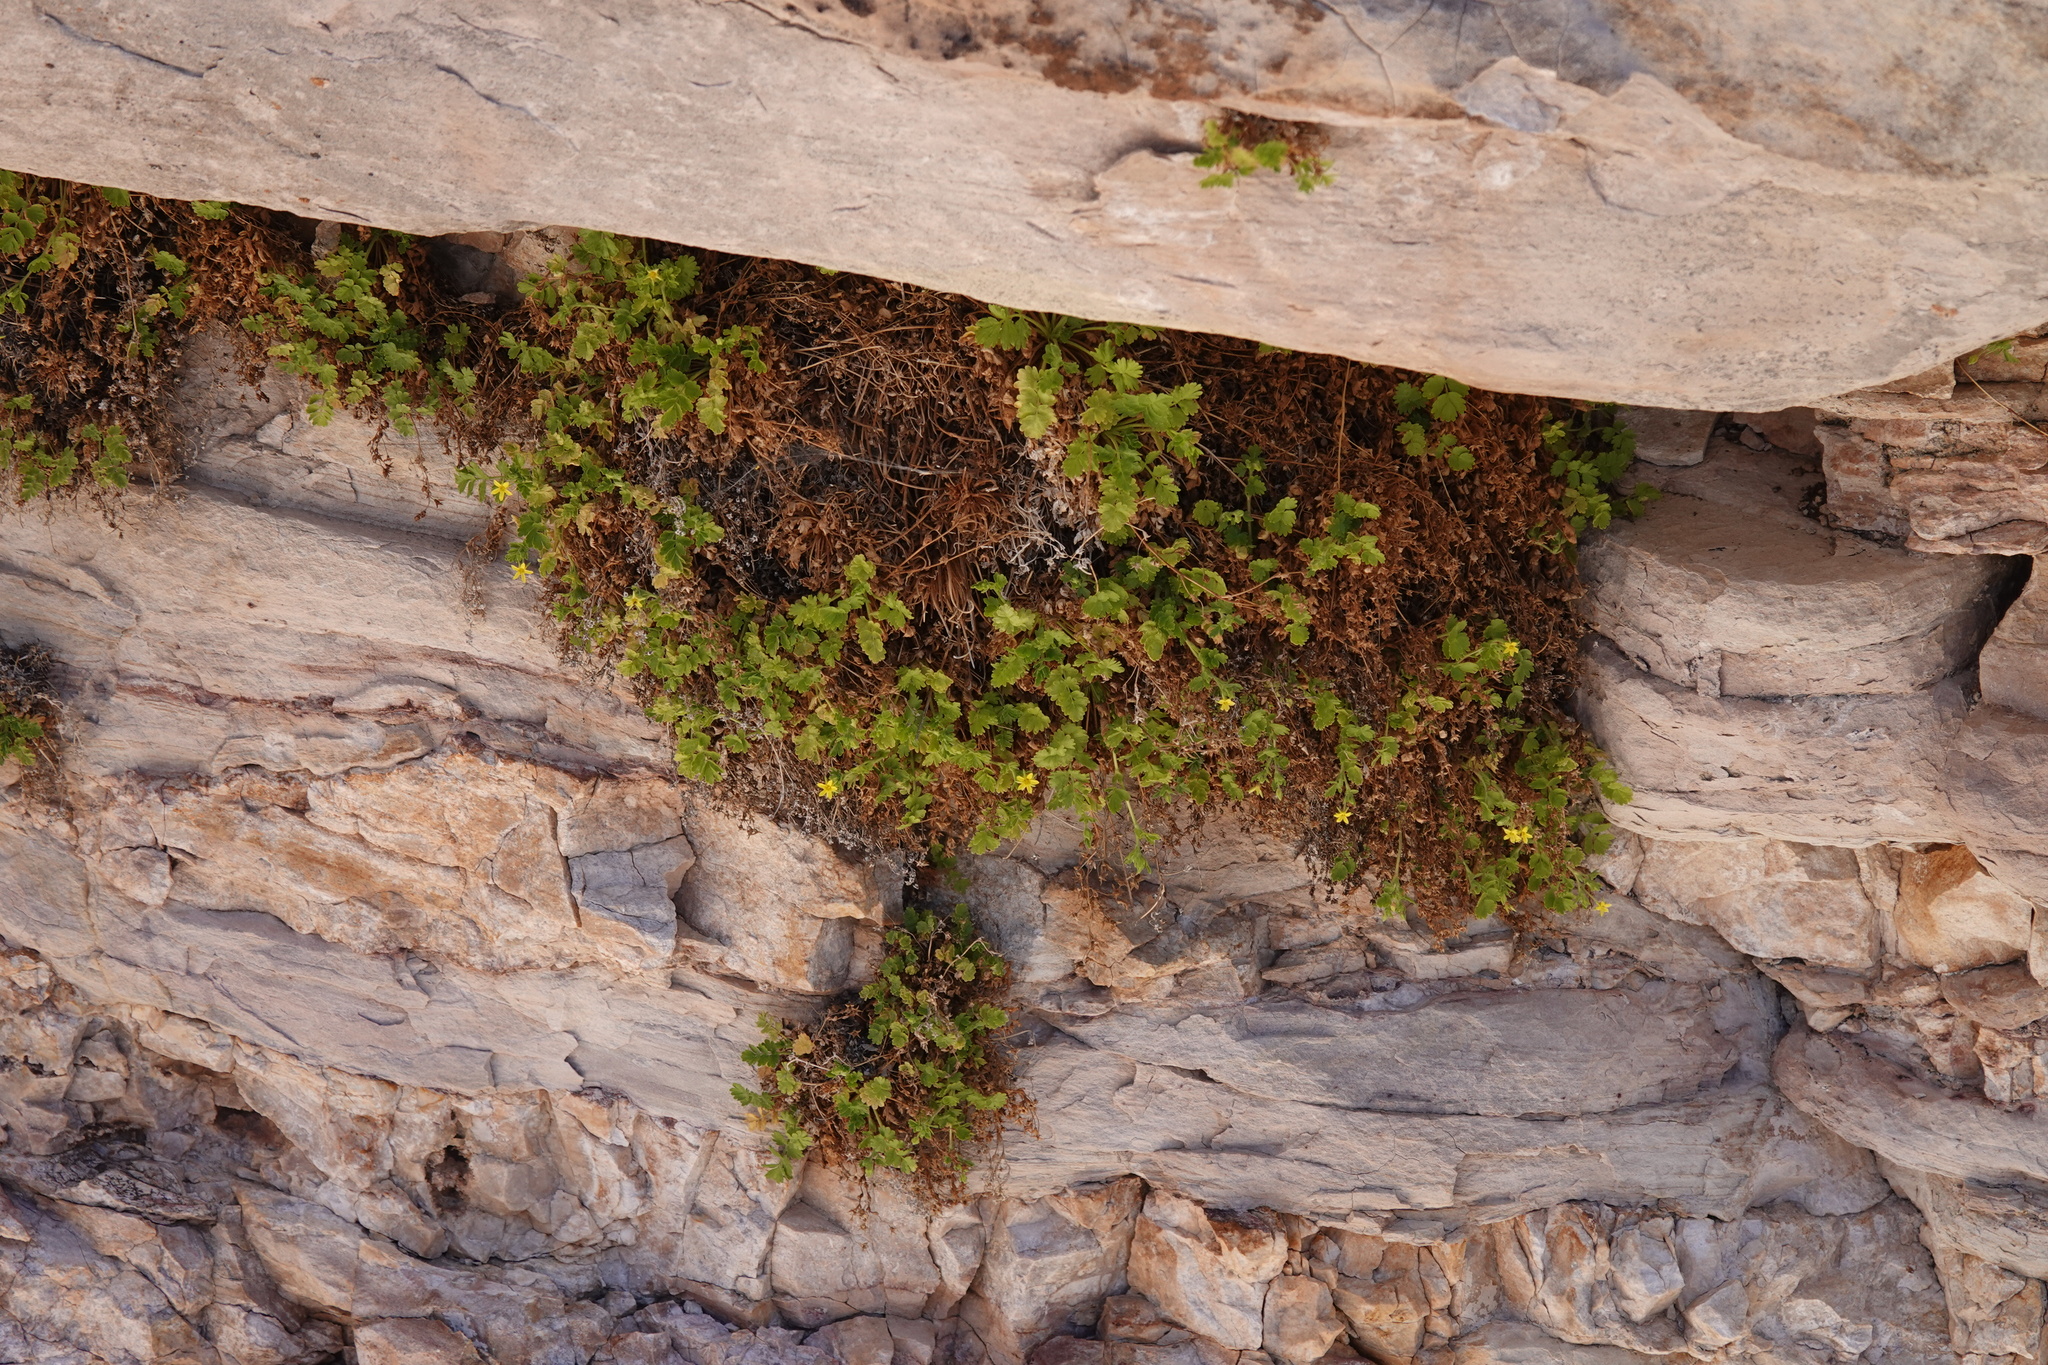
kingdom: Plantae
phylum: Tracheophyta
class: Magnoliopsida
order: Rosales
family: Rosaceae
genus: Potentilla
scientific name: Potentilla osterhoutii
